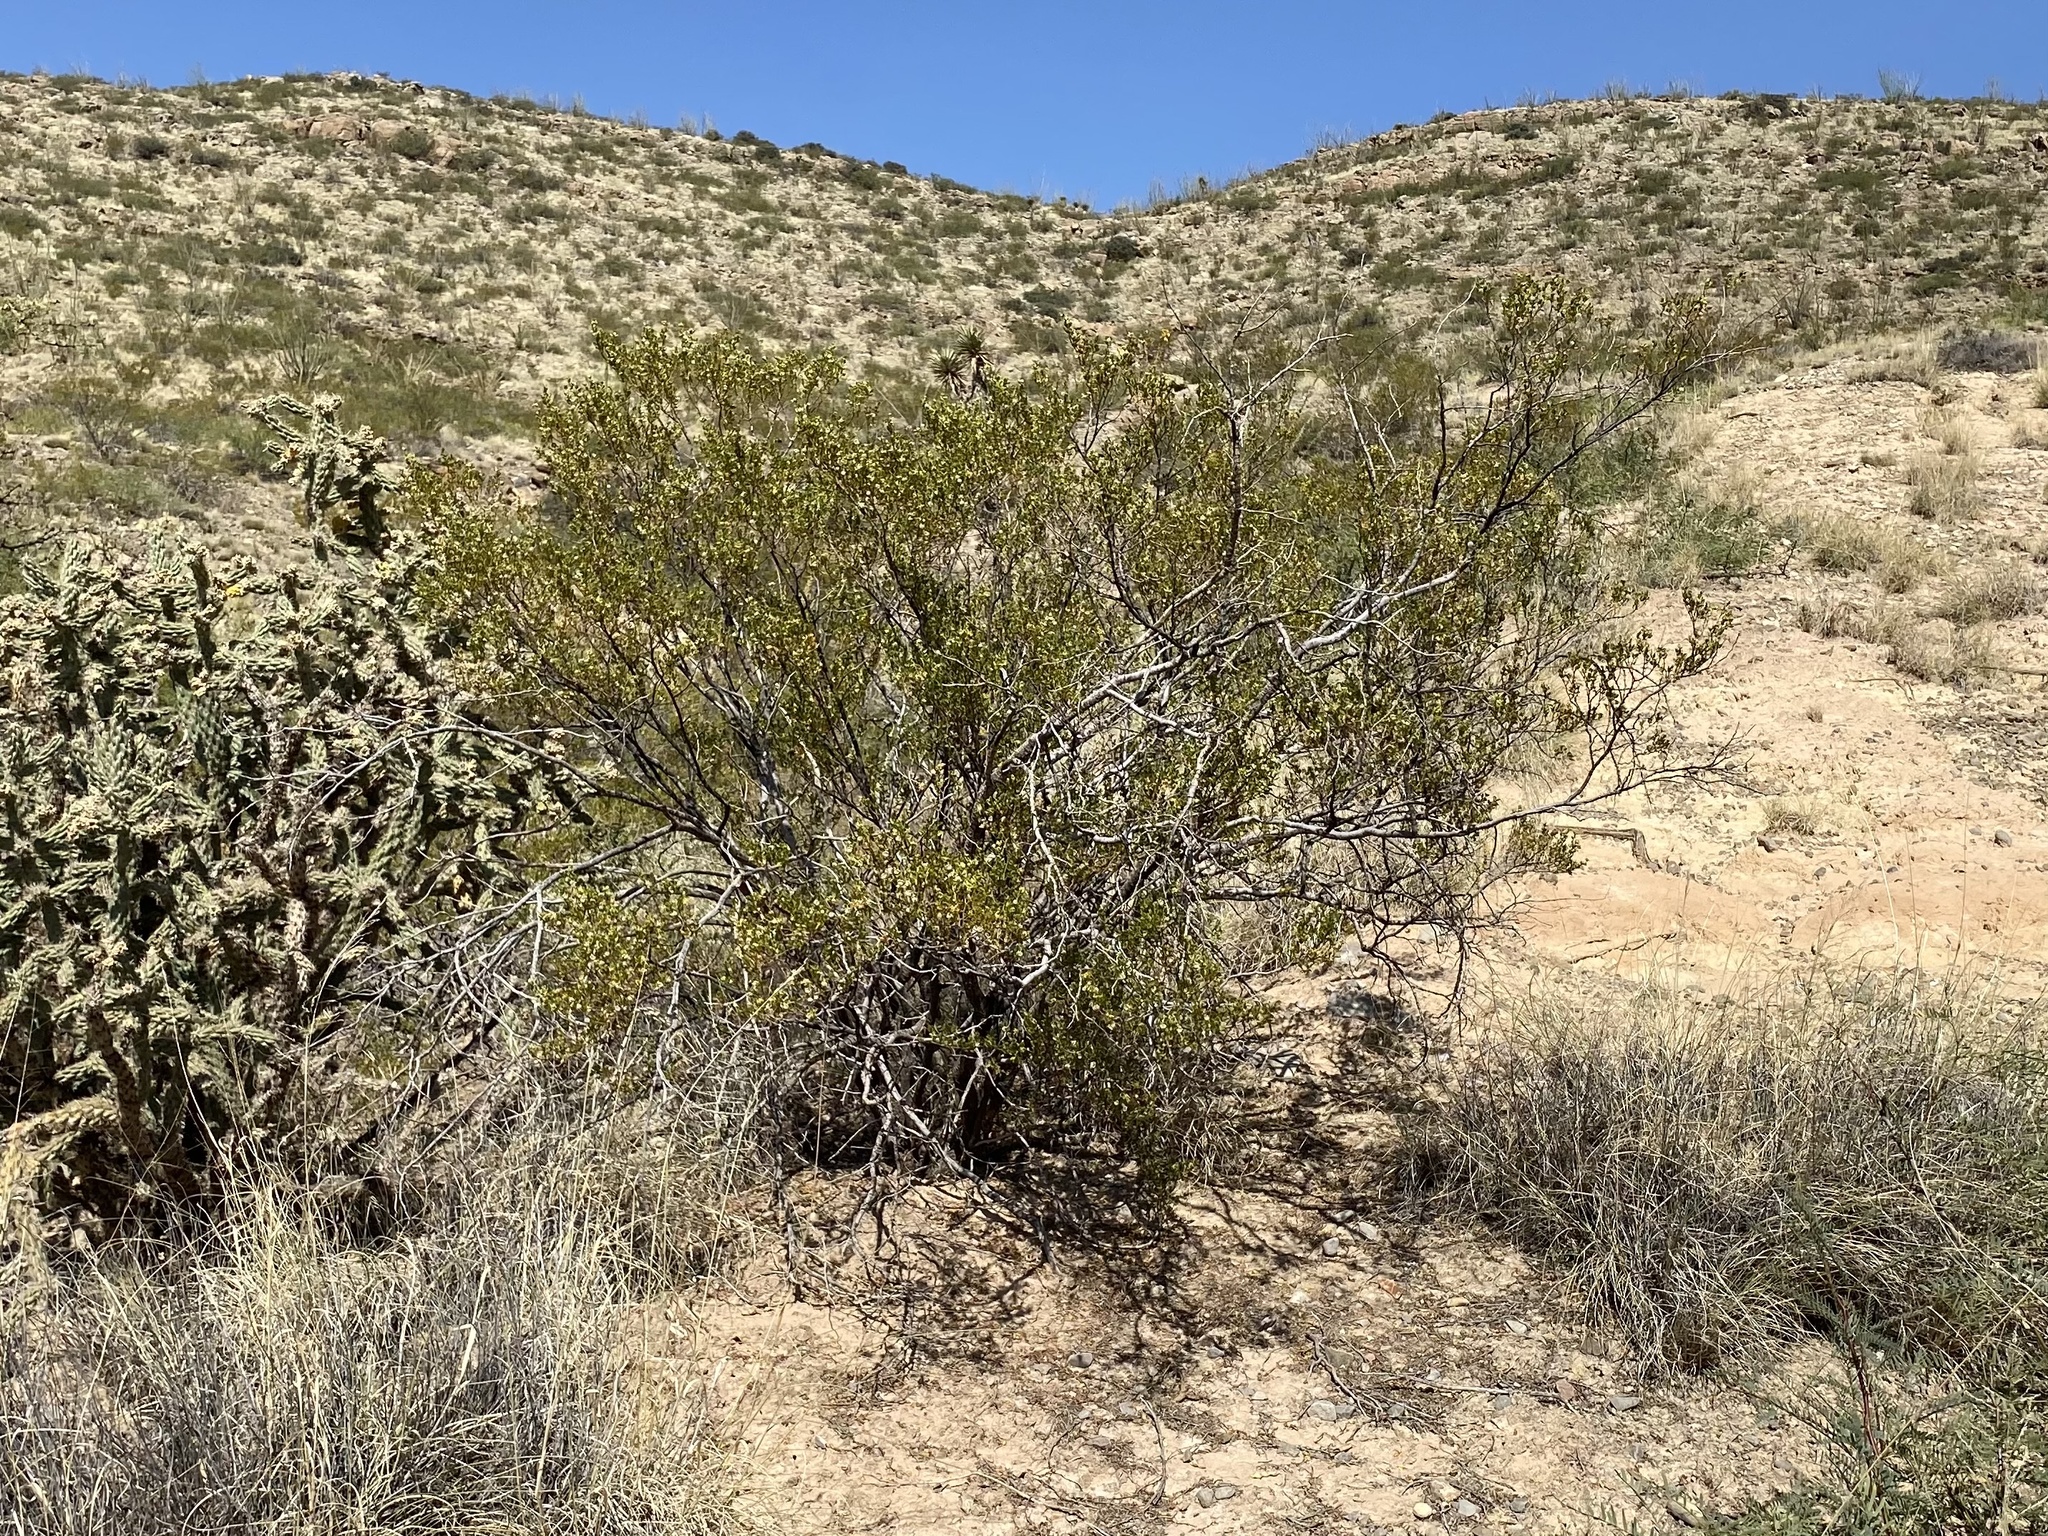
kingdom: Plantae
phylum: Tracheophyta
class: Magnoliopsida
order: Zygophyllales
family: Zygophyllaceae
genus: Larrea
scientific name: Larrea tridentata
